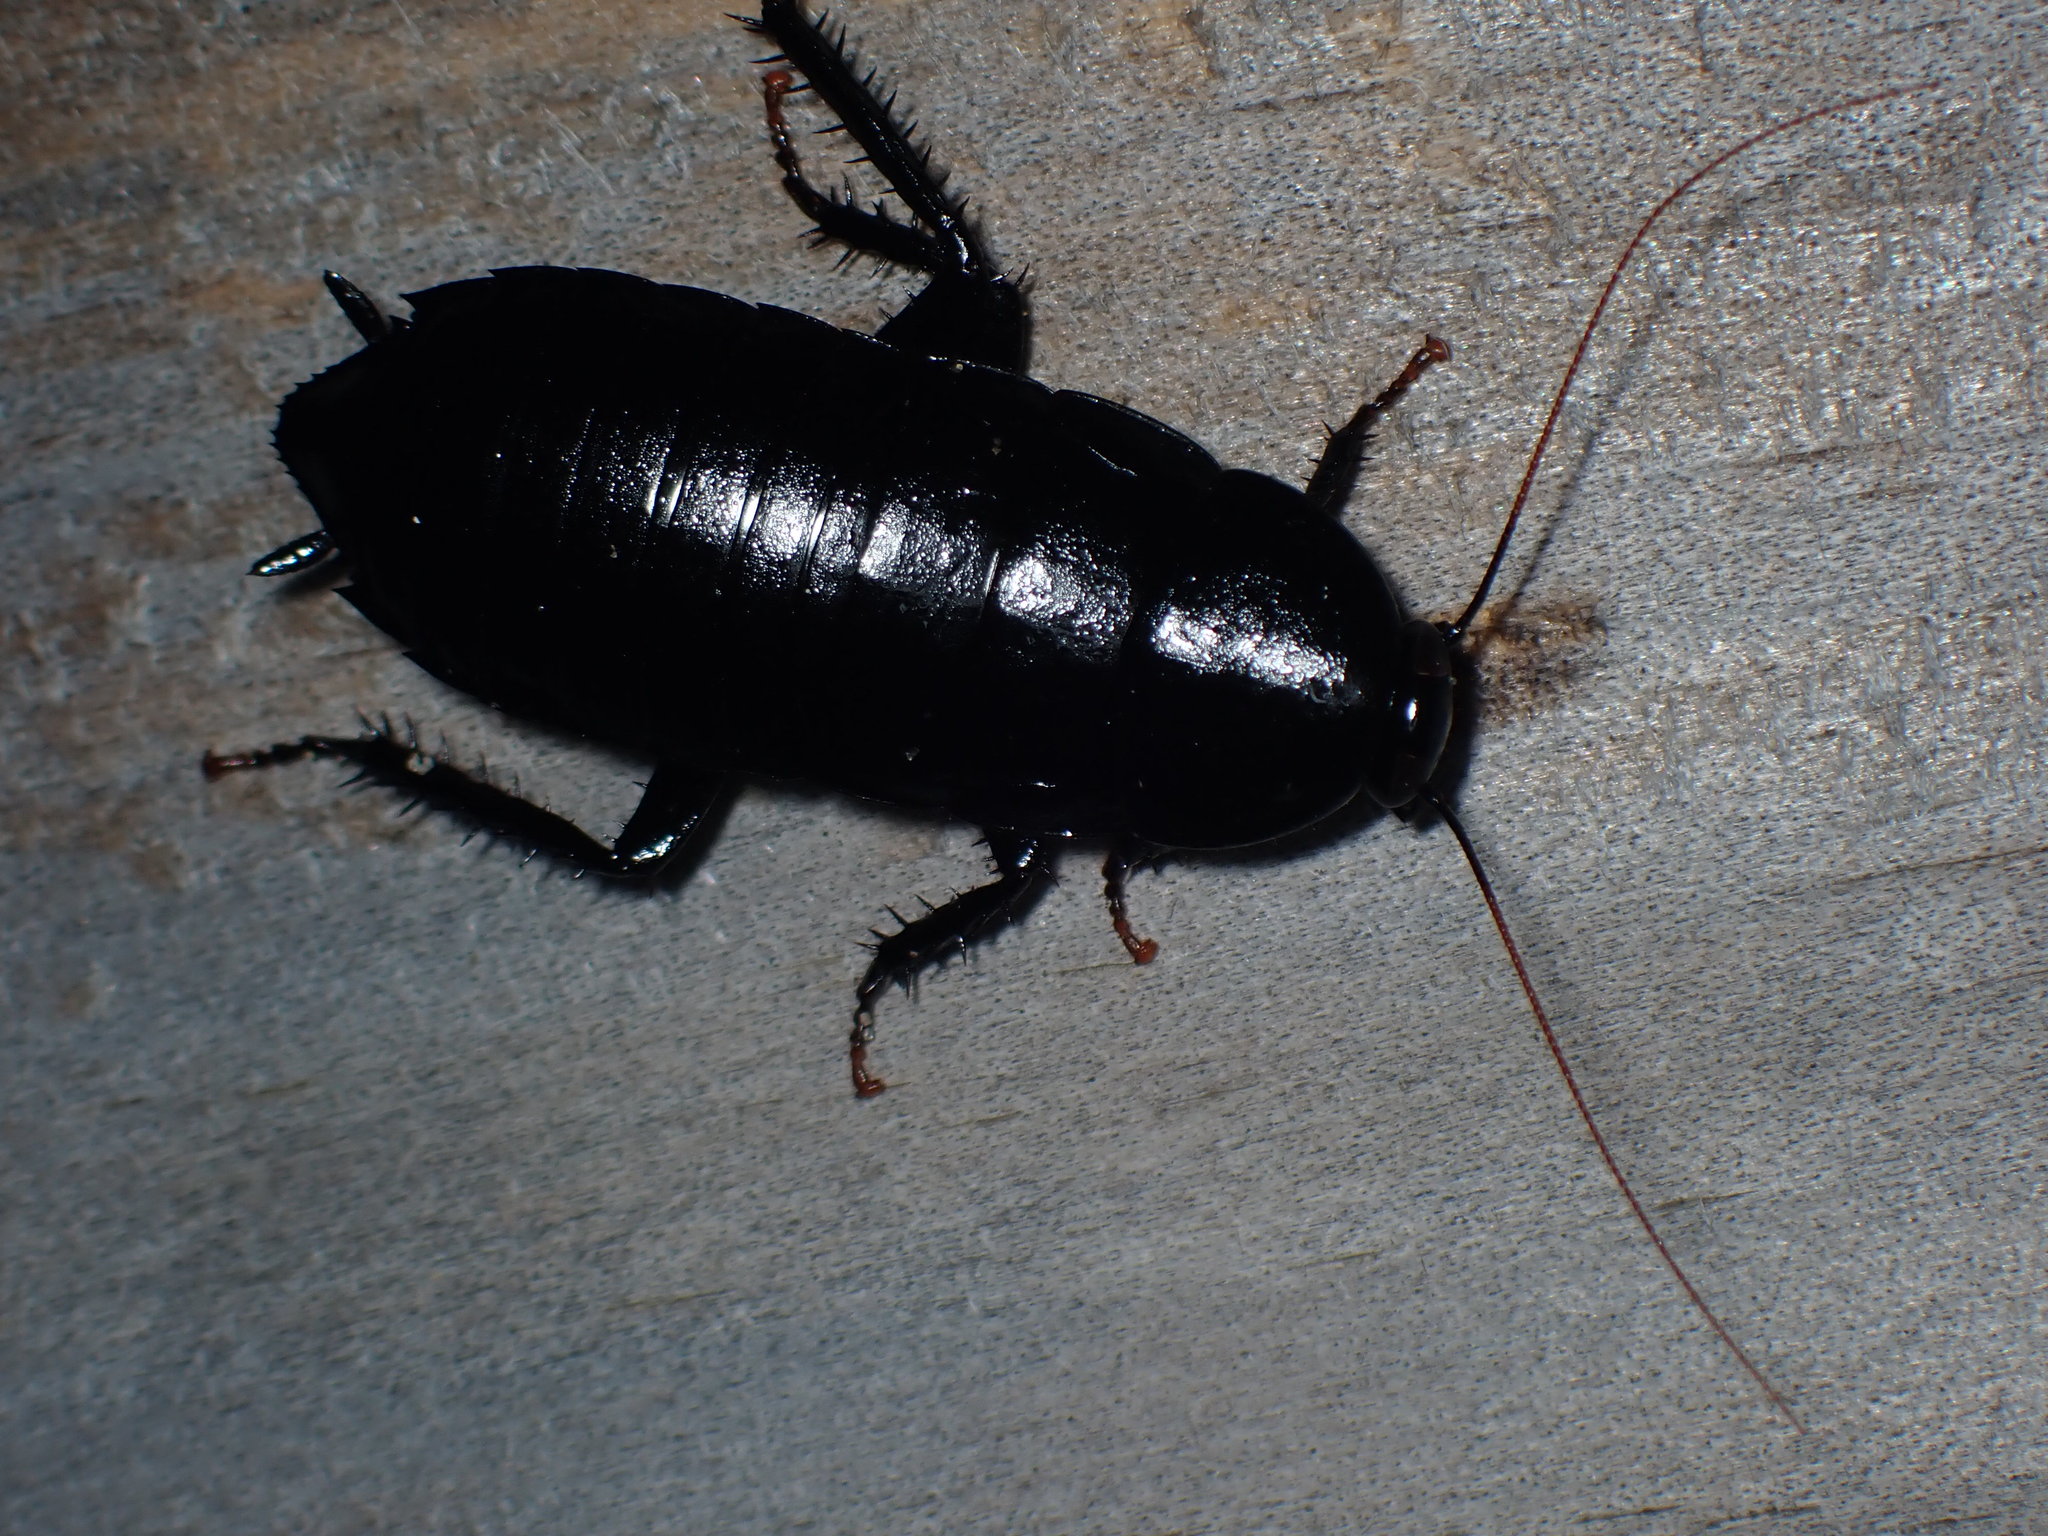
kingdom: Animalia
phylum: Arthropoda
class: Insecta
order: Blattodea
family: Blattidae
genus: Platyzosteria
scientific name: Platyzosteria morosa
